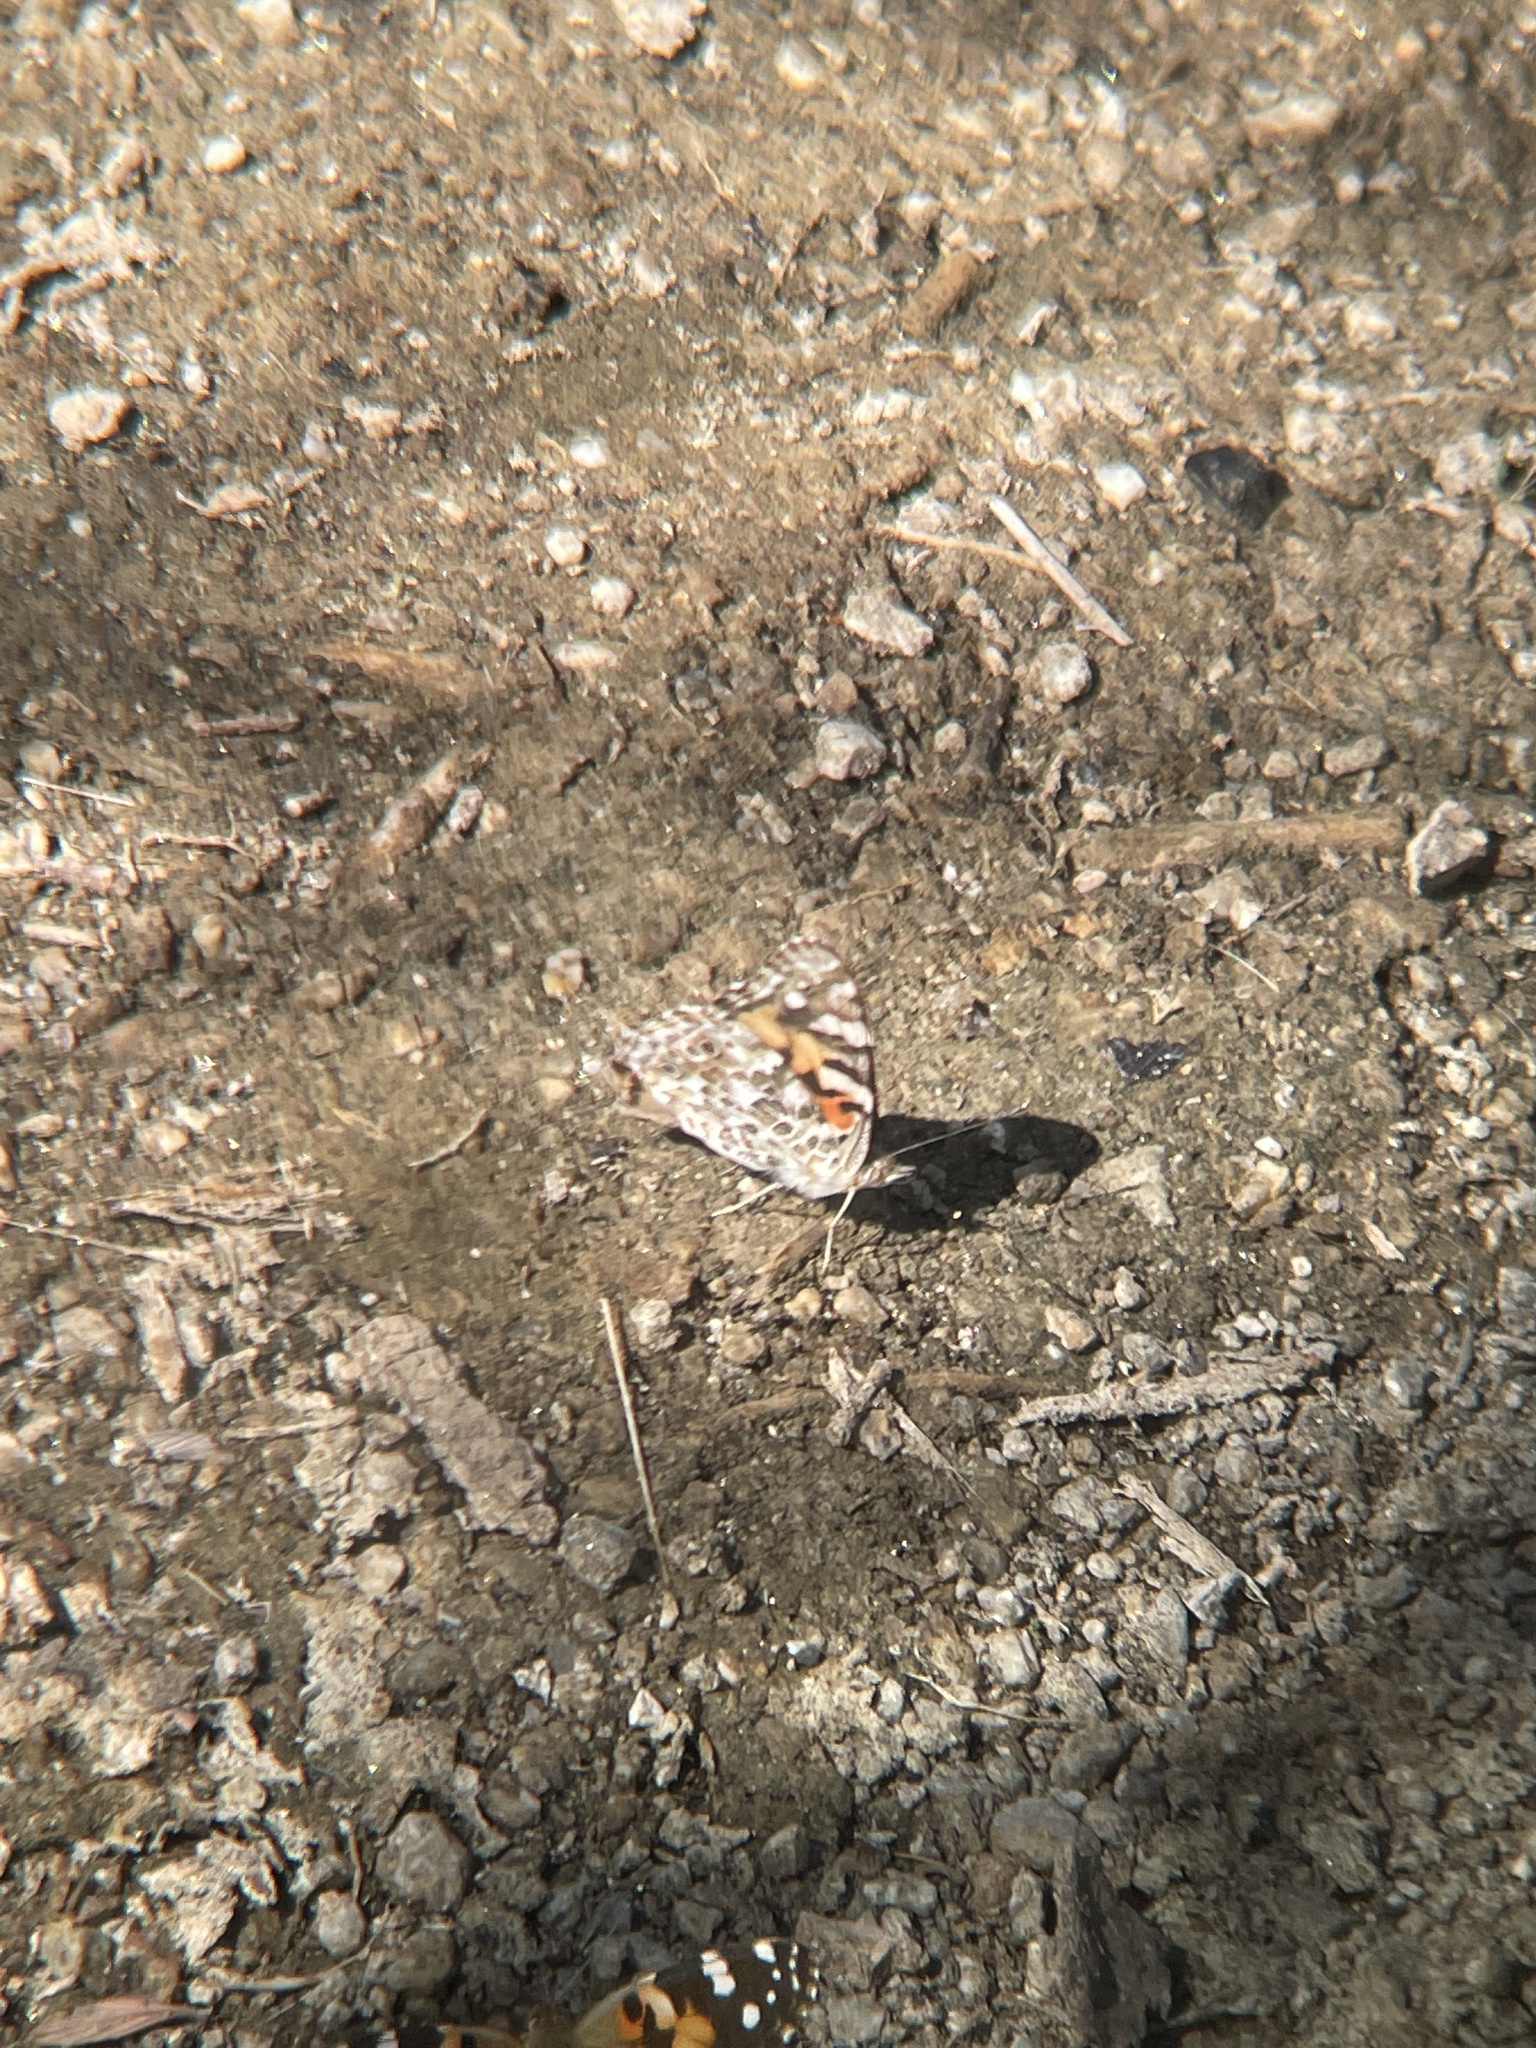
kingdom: Animalia
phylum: Arthropoda
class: Insecta
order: Lepidoptera
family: Nymphalidae
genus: Vanessa
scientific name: Vanessa cardui
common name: Painted lady
